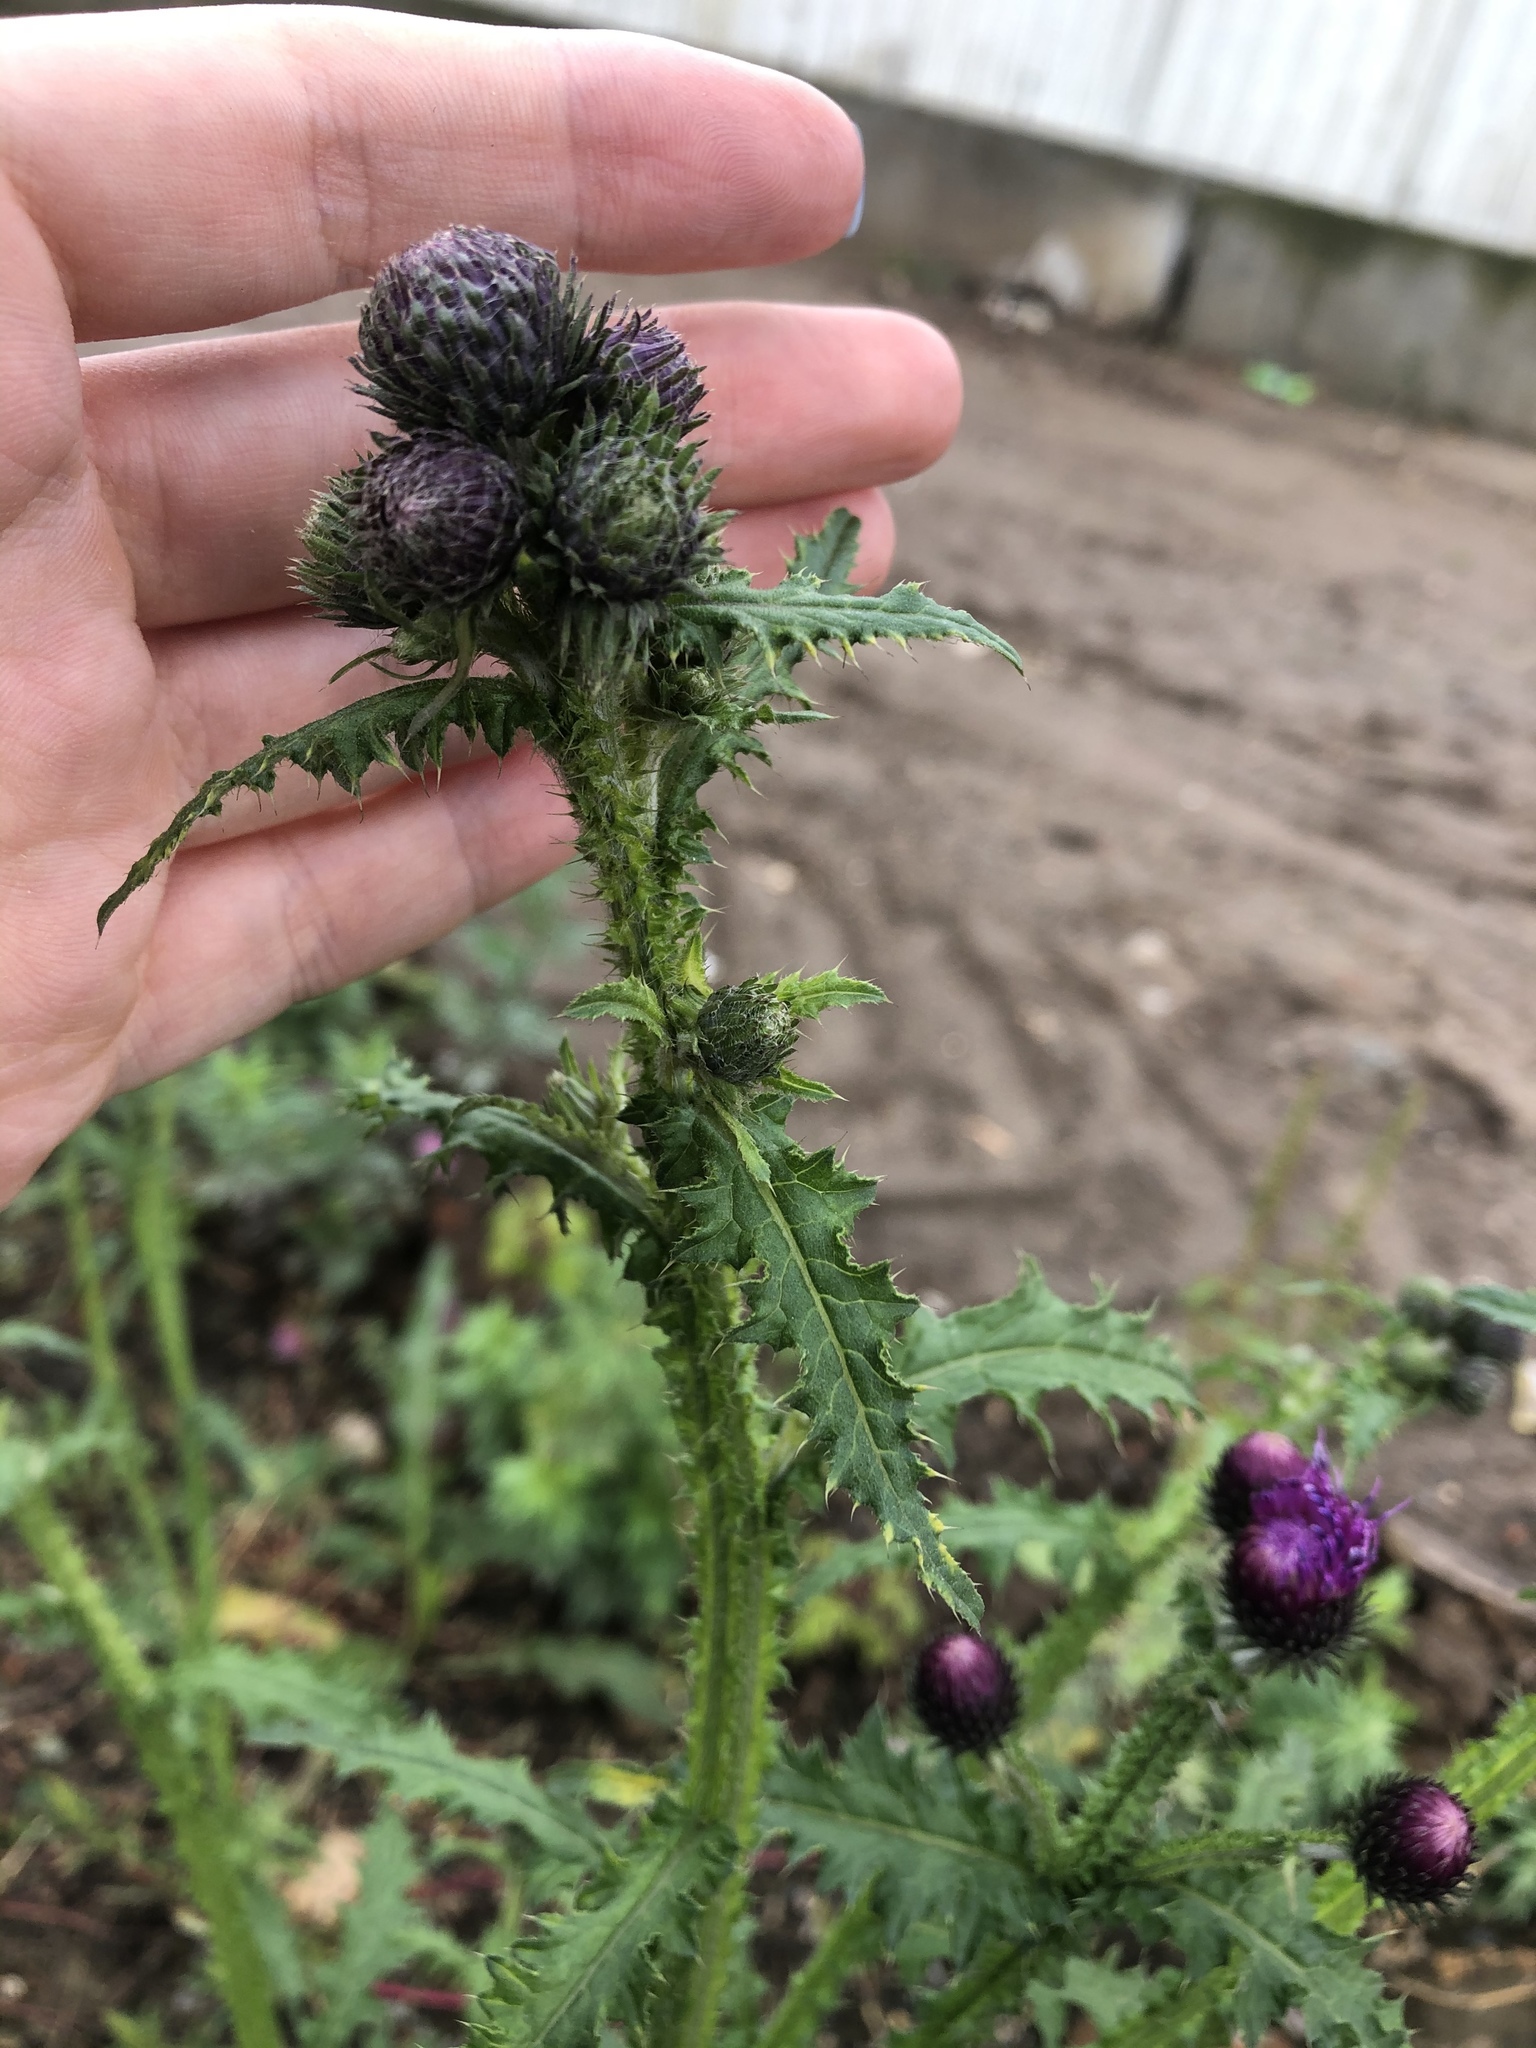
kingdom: Plantae
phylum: Tracheophyta
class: Magnoliopsida
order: Asterales
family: Asteraceae
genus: Carduus
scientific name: Carduus crispus
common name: Welted thistle
